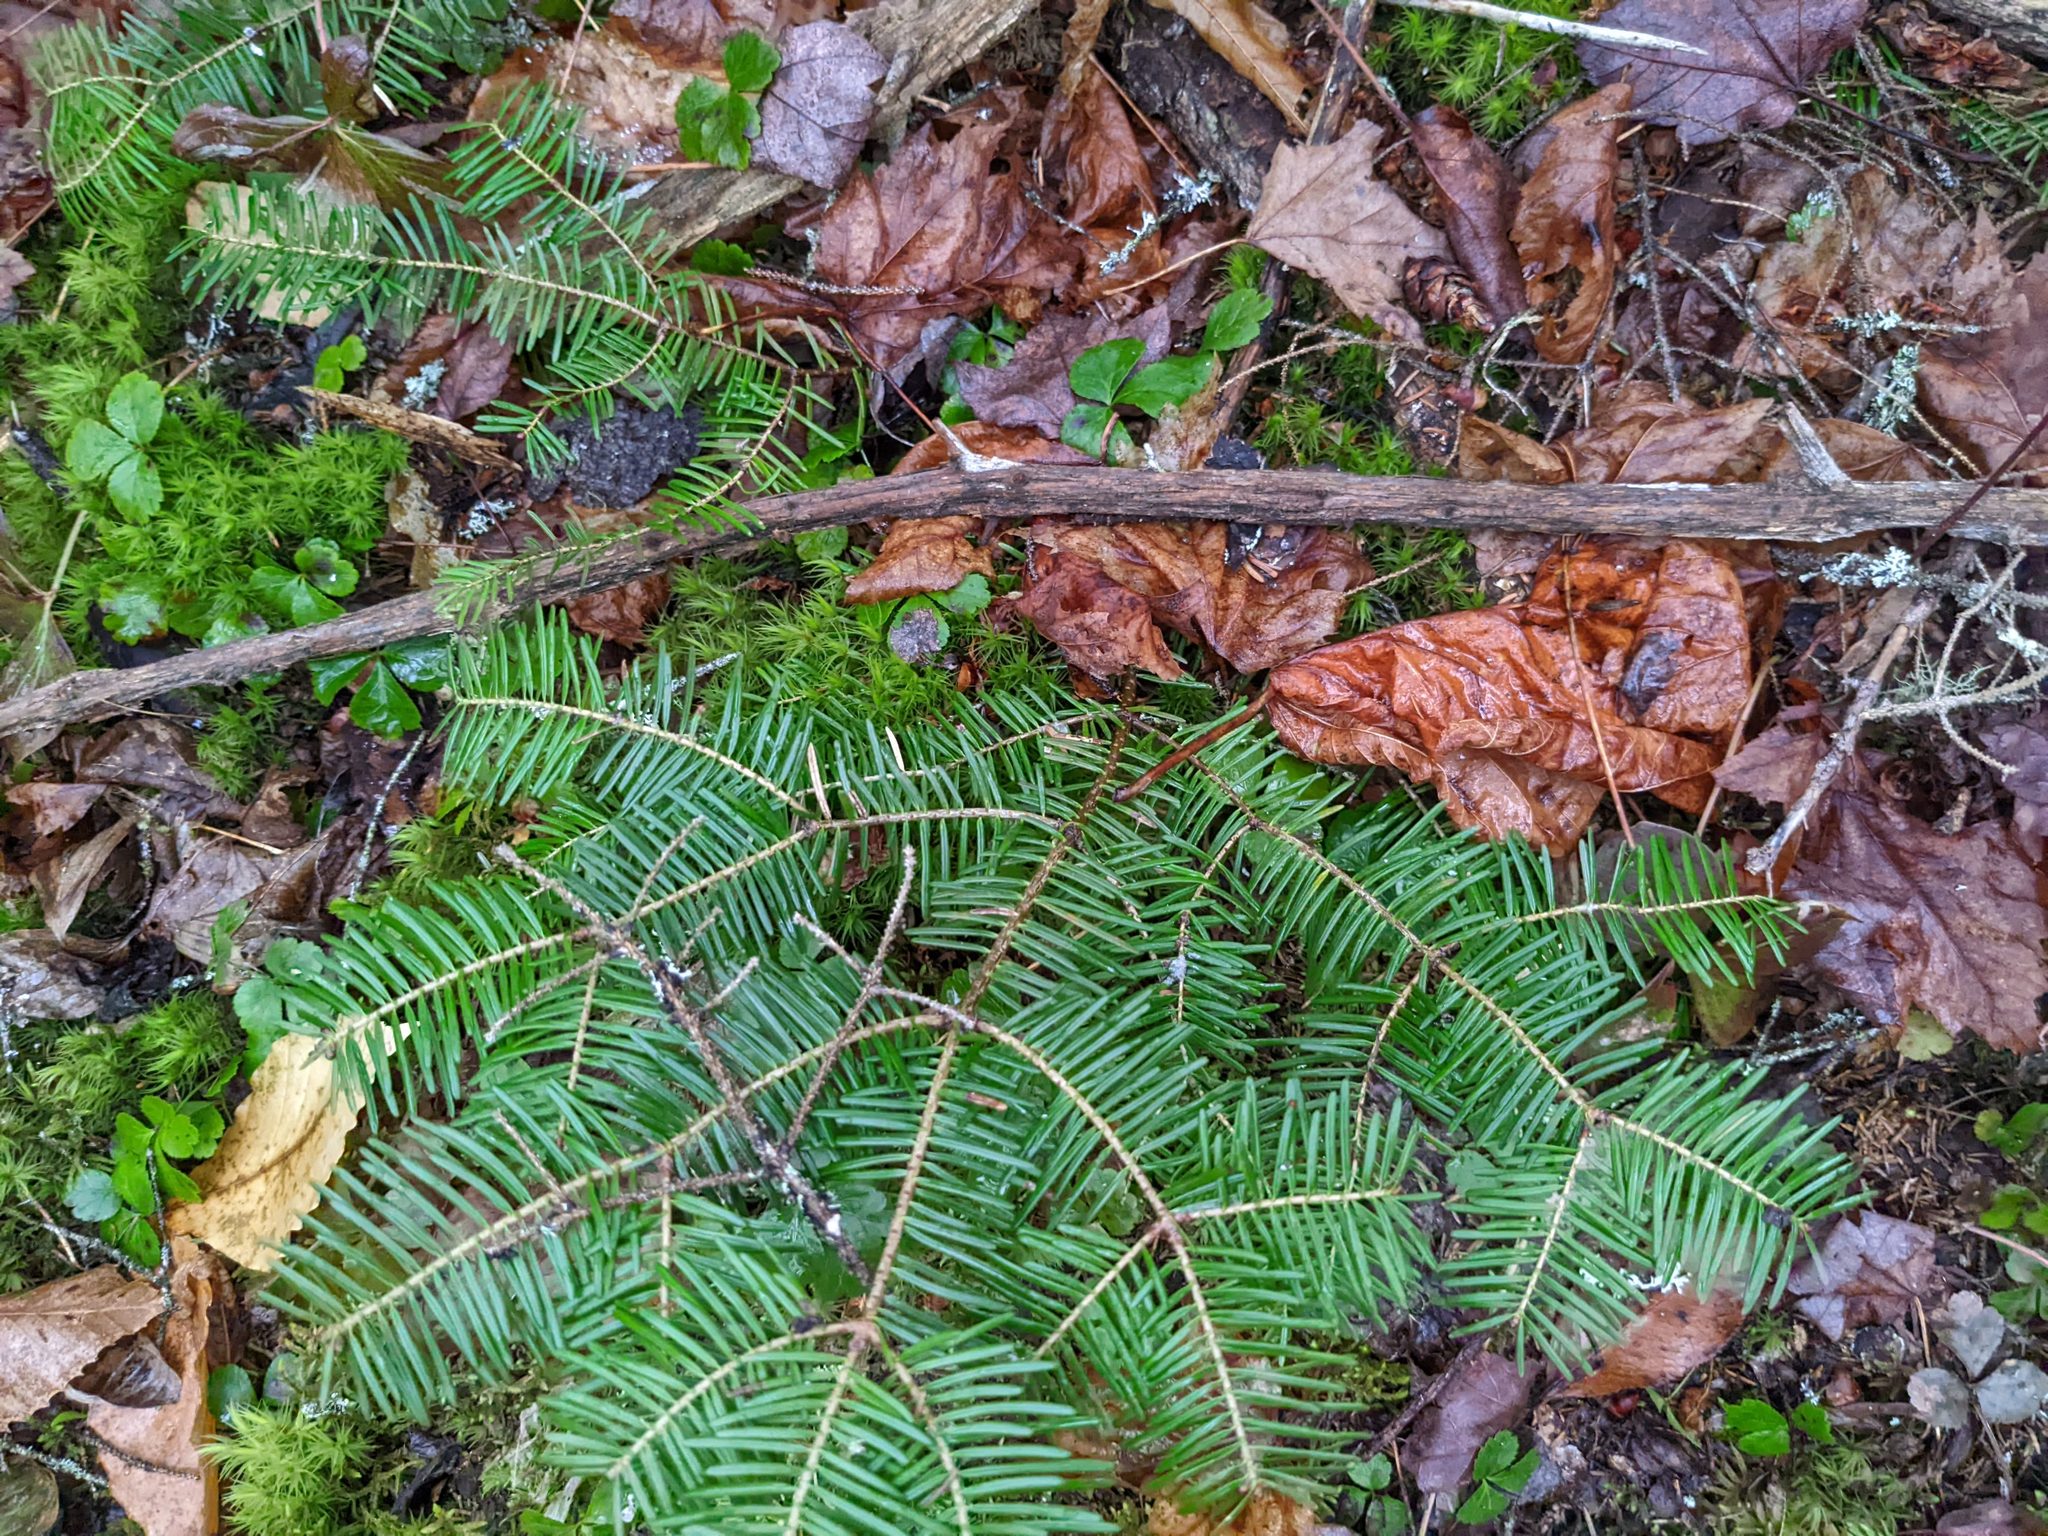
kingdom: Plantae
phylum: Tracheophyta
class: Pinopsida
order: Pinales
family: Pinaceae
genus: Abies
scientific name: Abies balsamea
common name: Balsam fir
